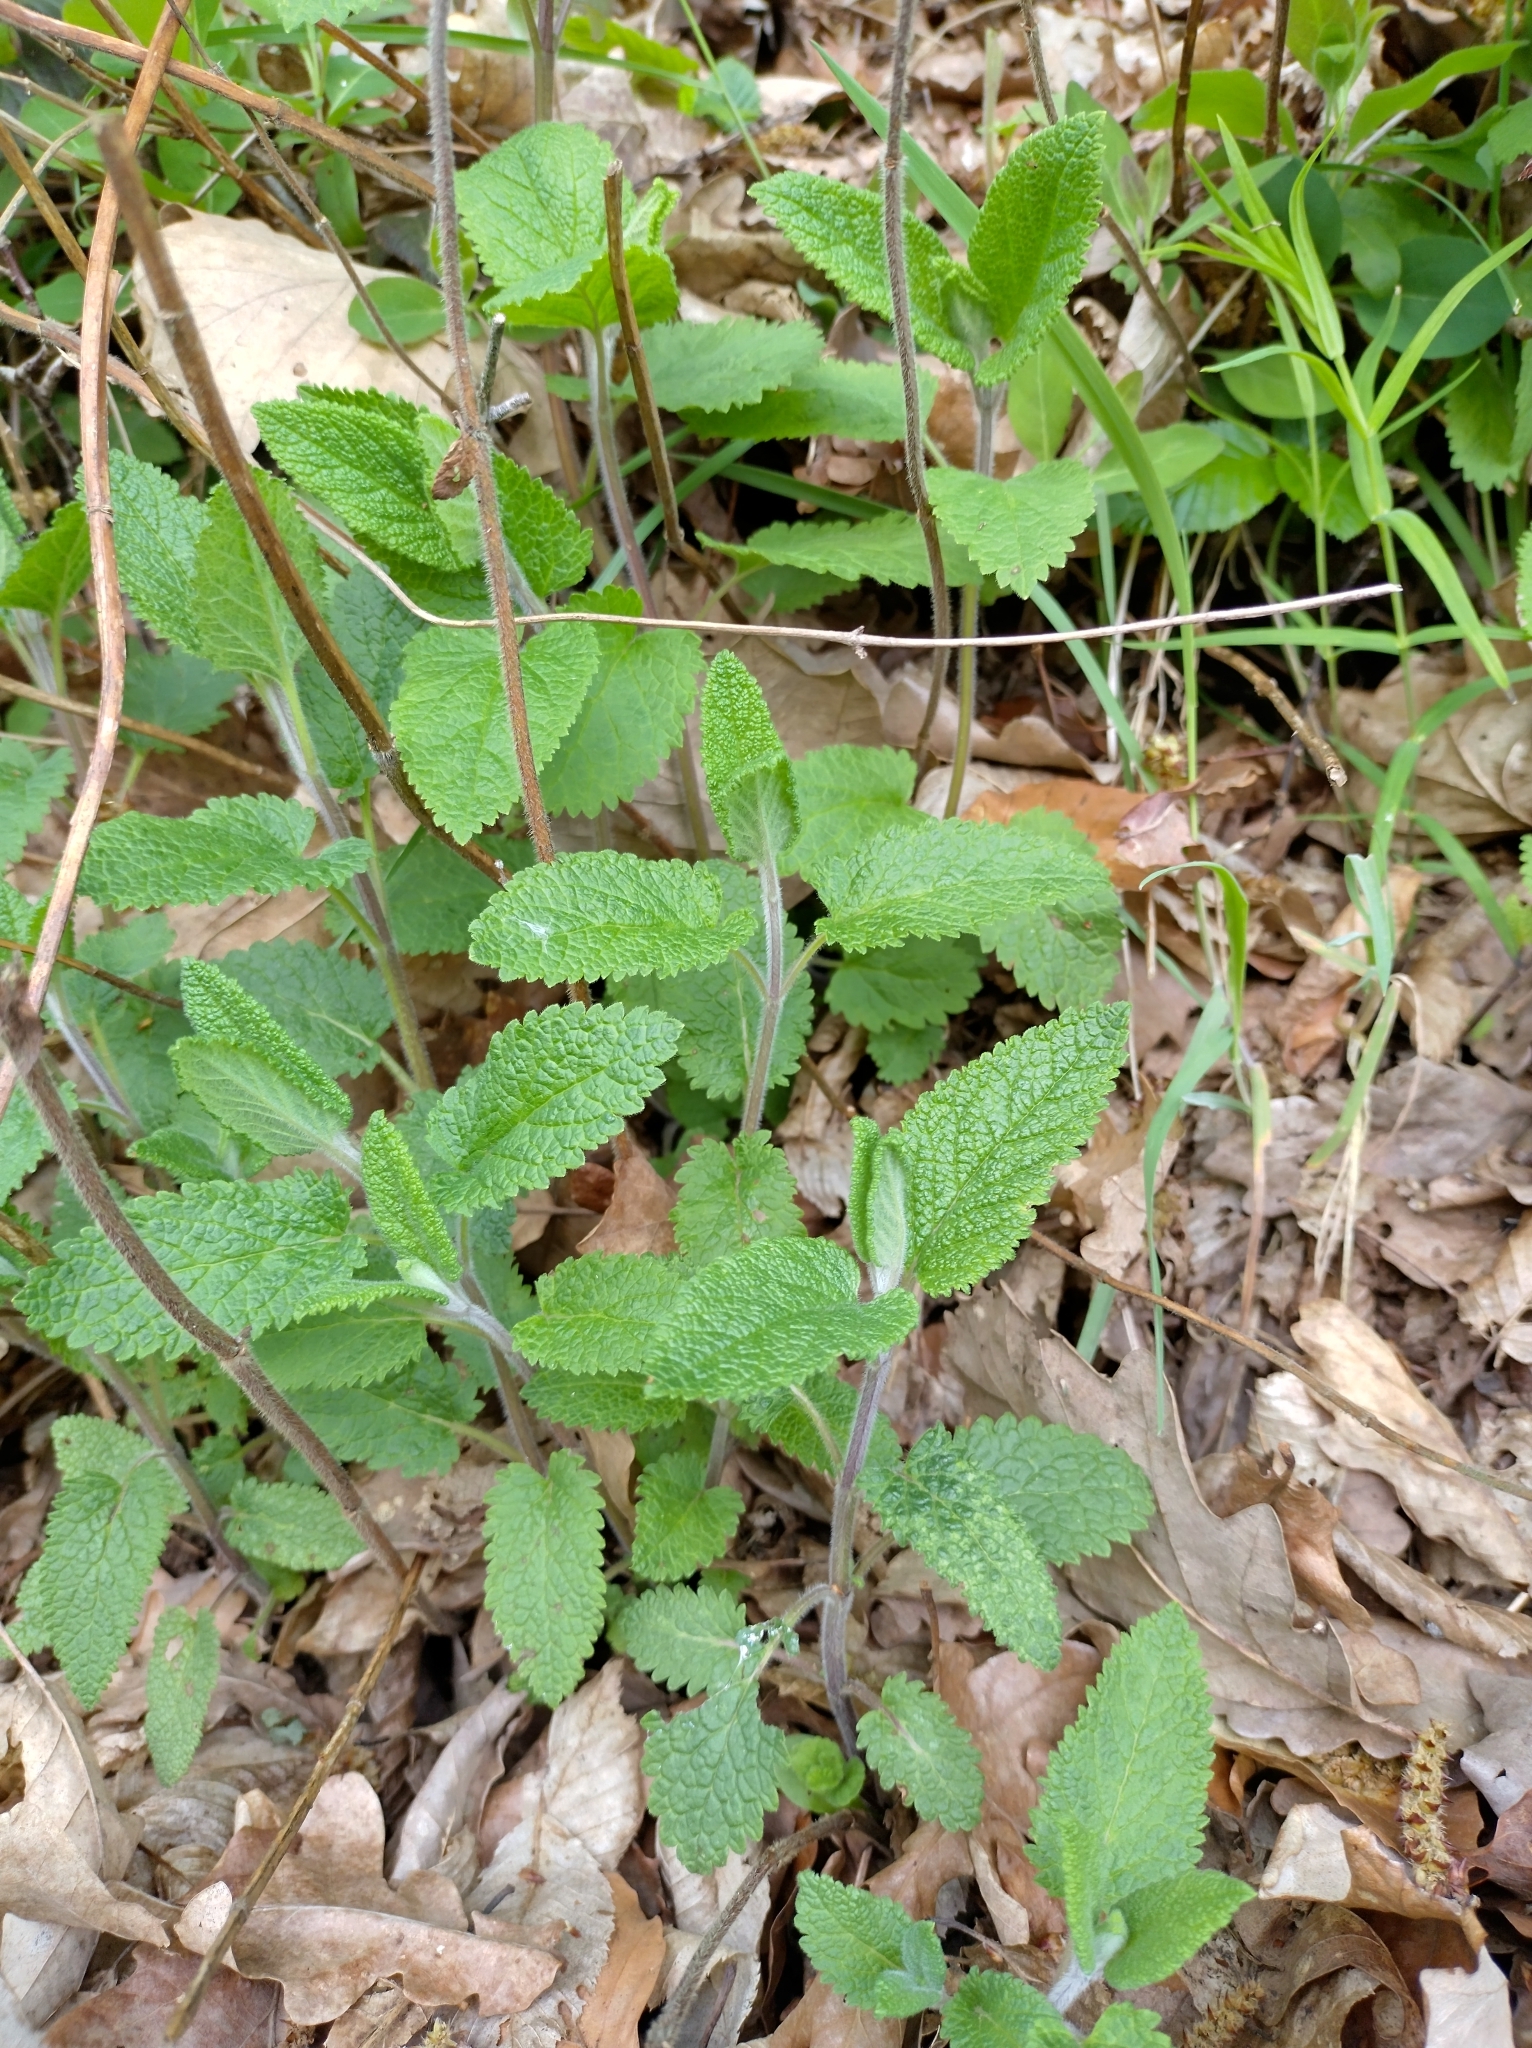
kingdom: Plantae
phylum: Tracheophyta
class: Magnoliopsida
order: Lamiales
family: Lamiaceae
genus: Teucrium
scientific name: Teucrium scorodonia
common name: Woodland germander
